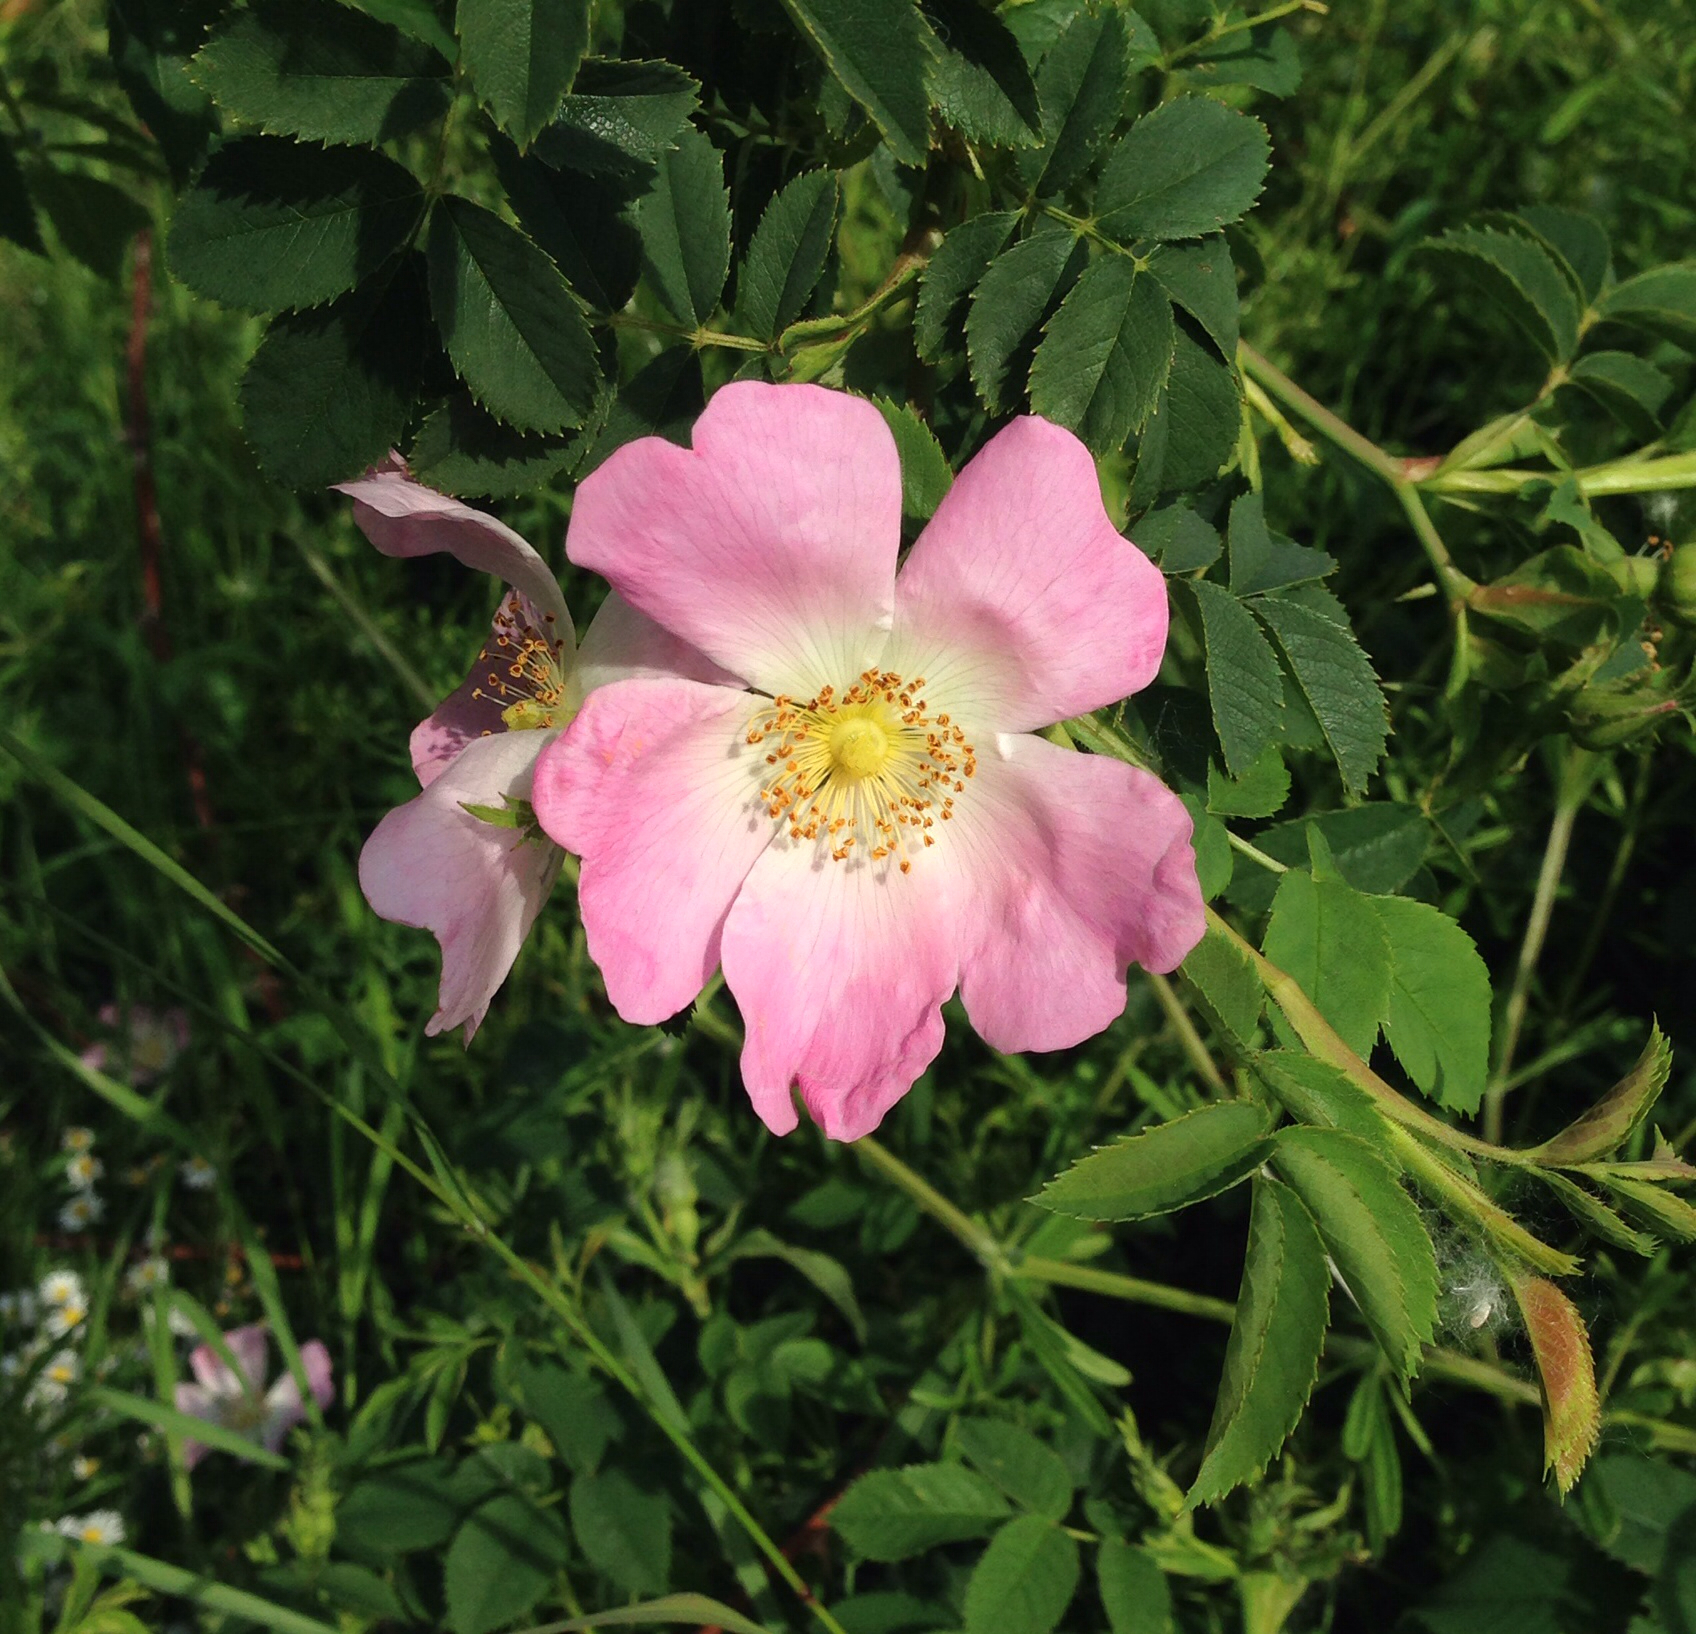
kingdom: Plantae
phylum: Tracheophyta
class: Magnoliopsida
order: Rosales
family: Rosaceae
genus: Rosa
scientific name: Rosa canina
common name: Dog rose
